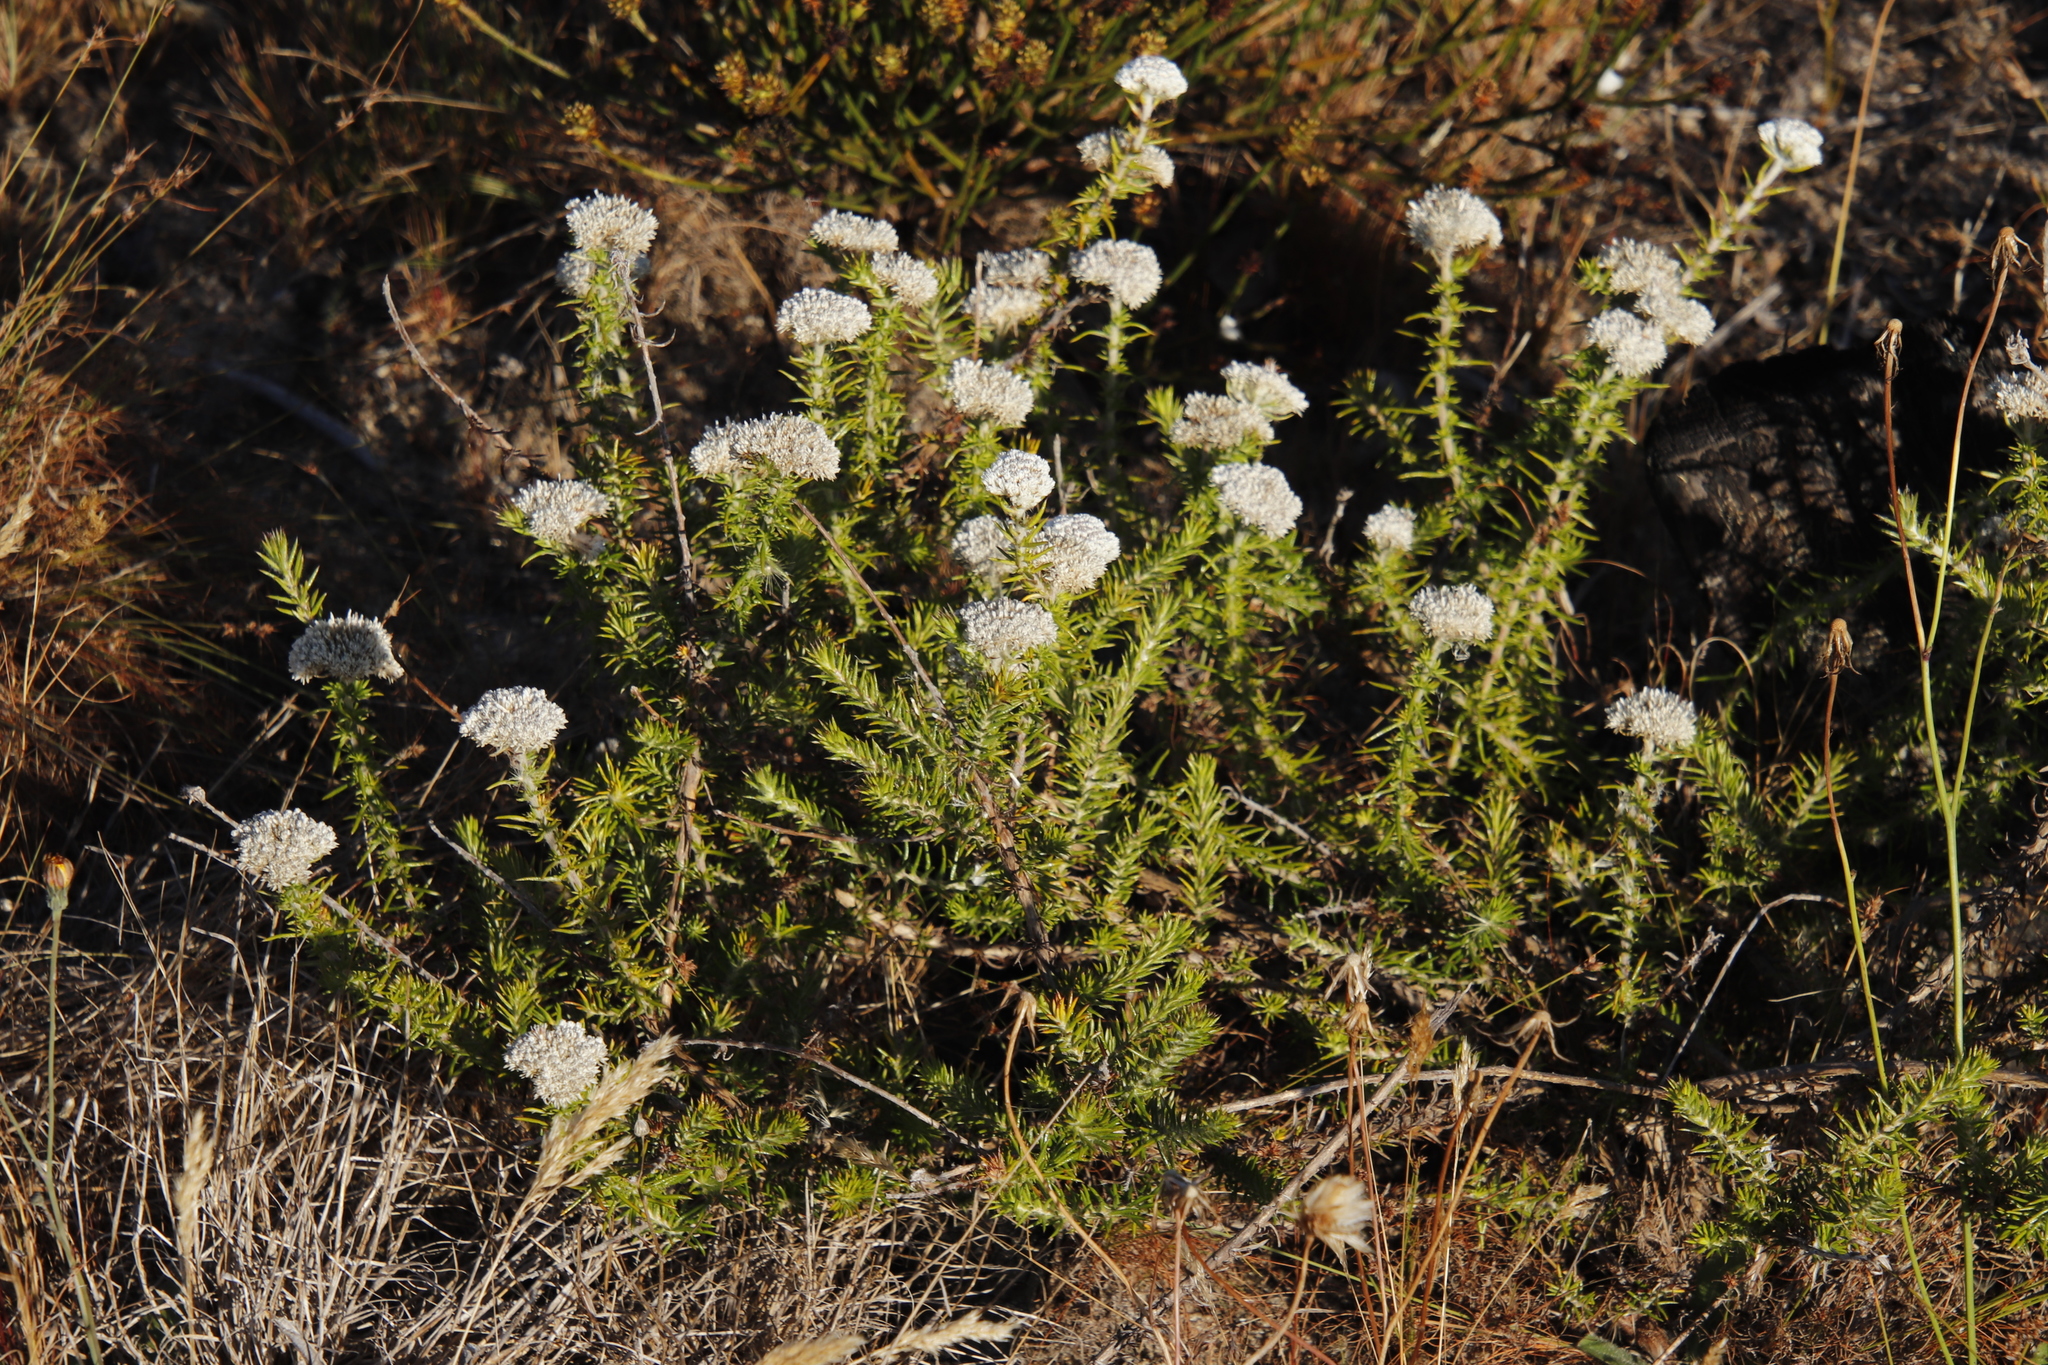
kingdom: Plantae
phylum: Tracheophyta
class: Magnoliopsida
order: Asterales
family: Asteraceae
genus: Metalasia
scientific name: Metalasia pulchella
